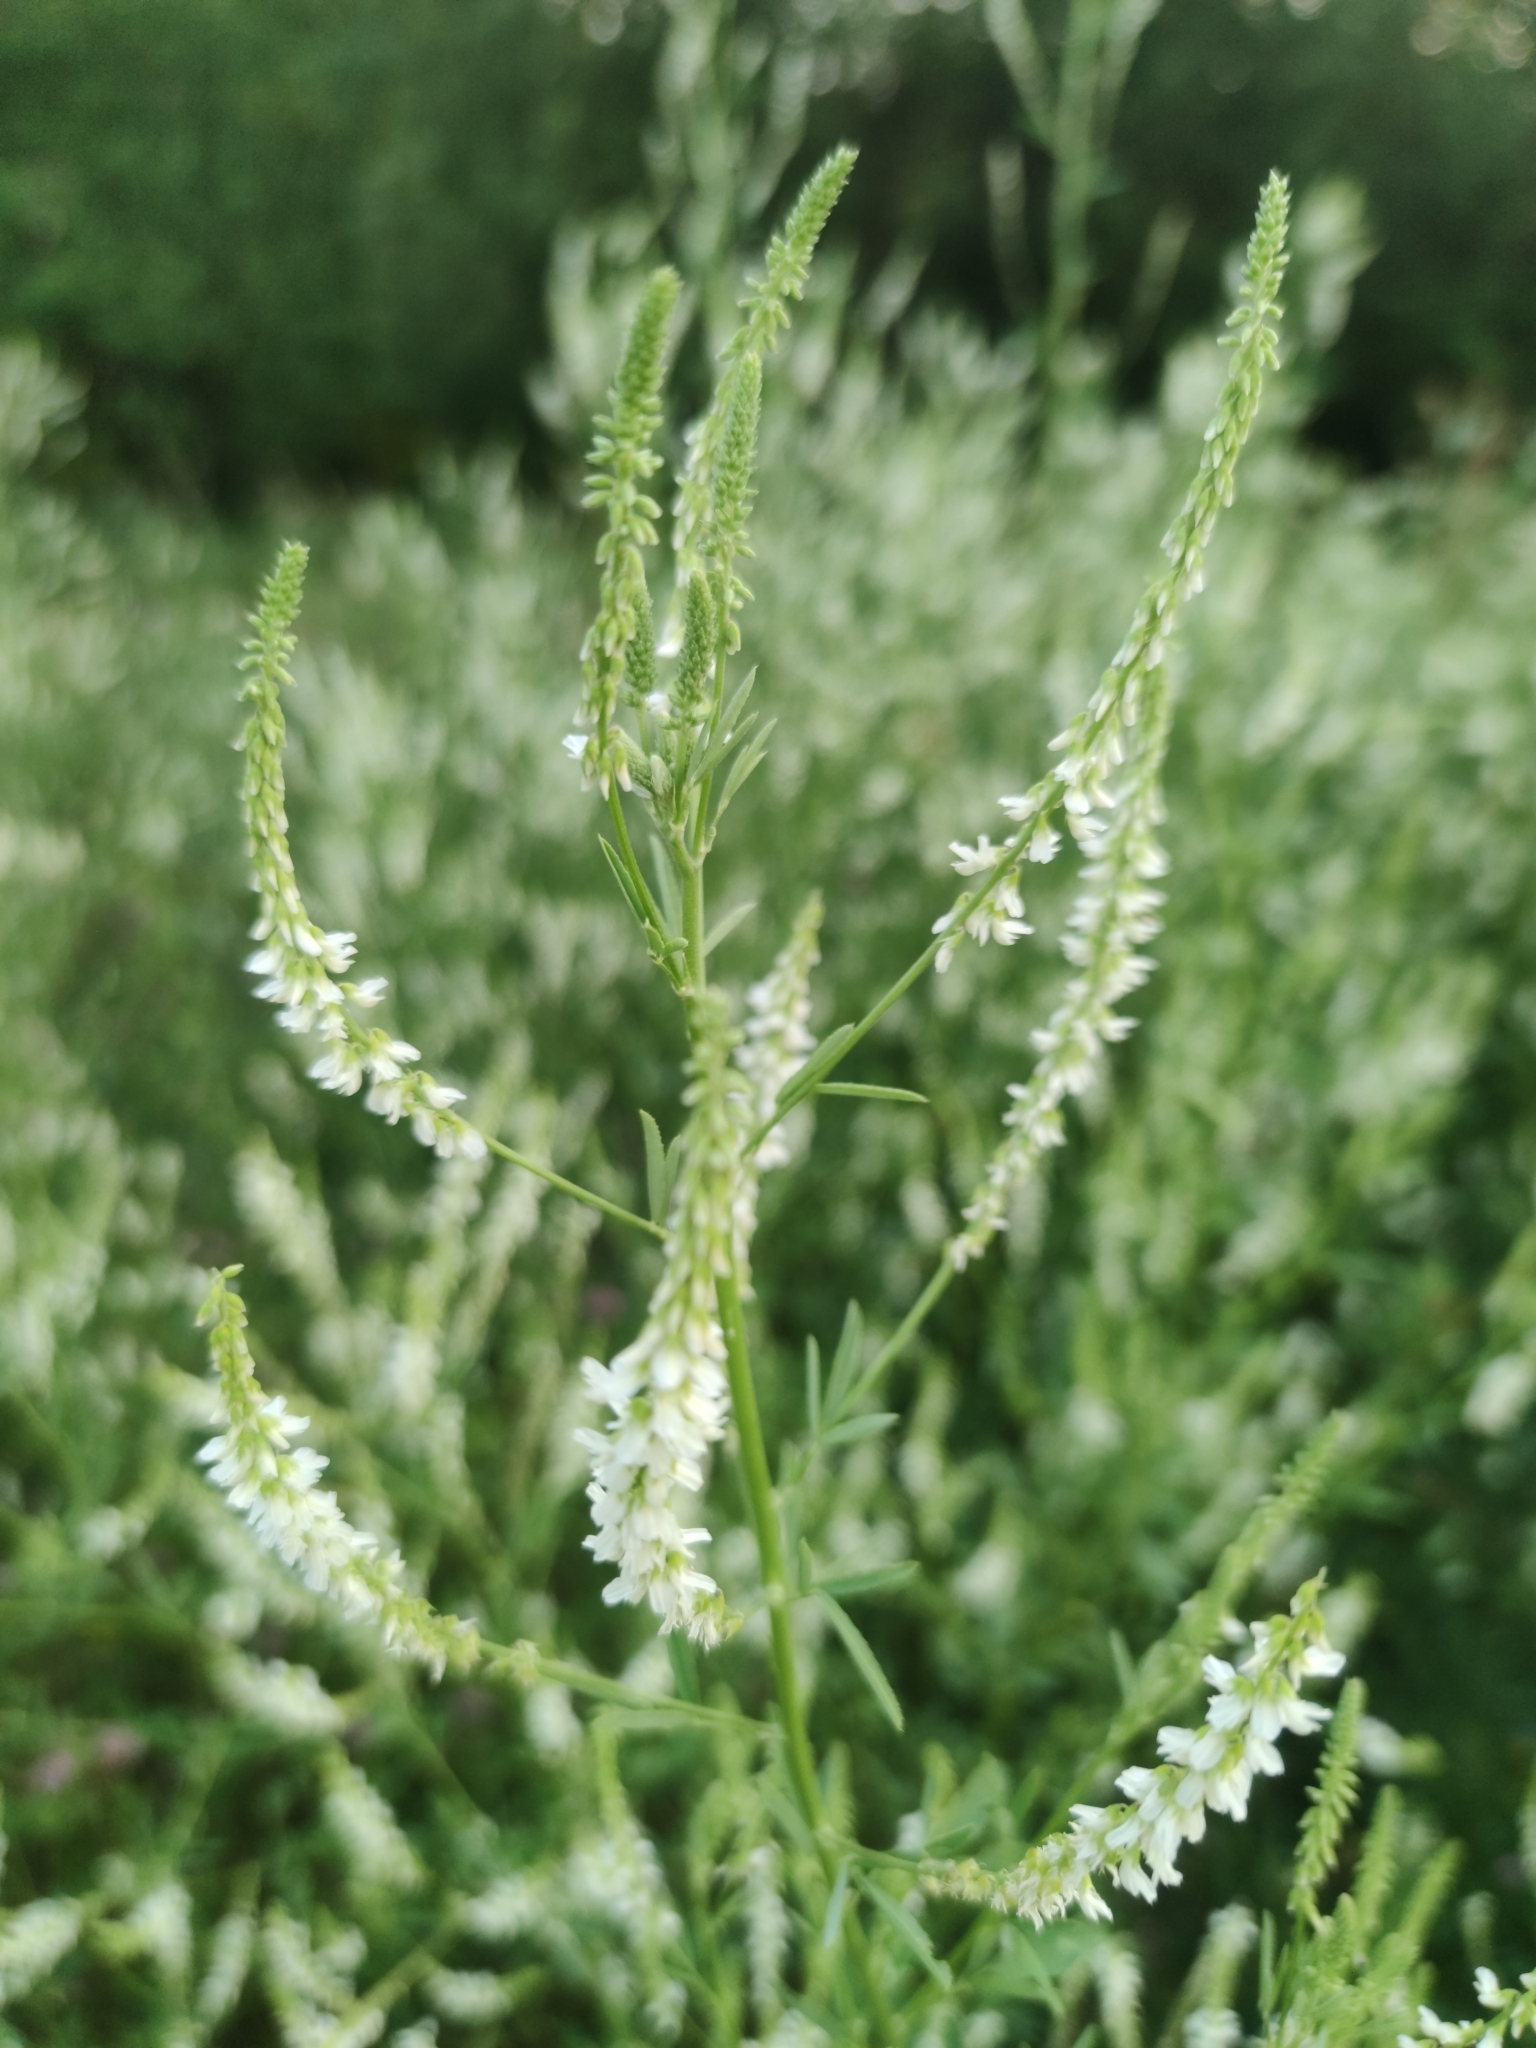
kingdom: Plantae
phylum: Tracheophyta
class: Magnoliopsida
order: Fabales
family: Fabaceae
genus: Melilotus
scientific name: Melilotus albus
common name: White melilot
